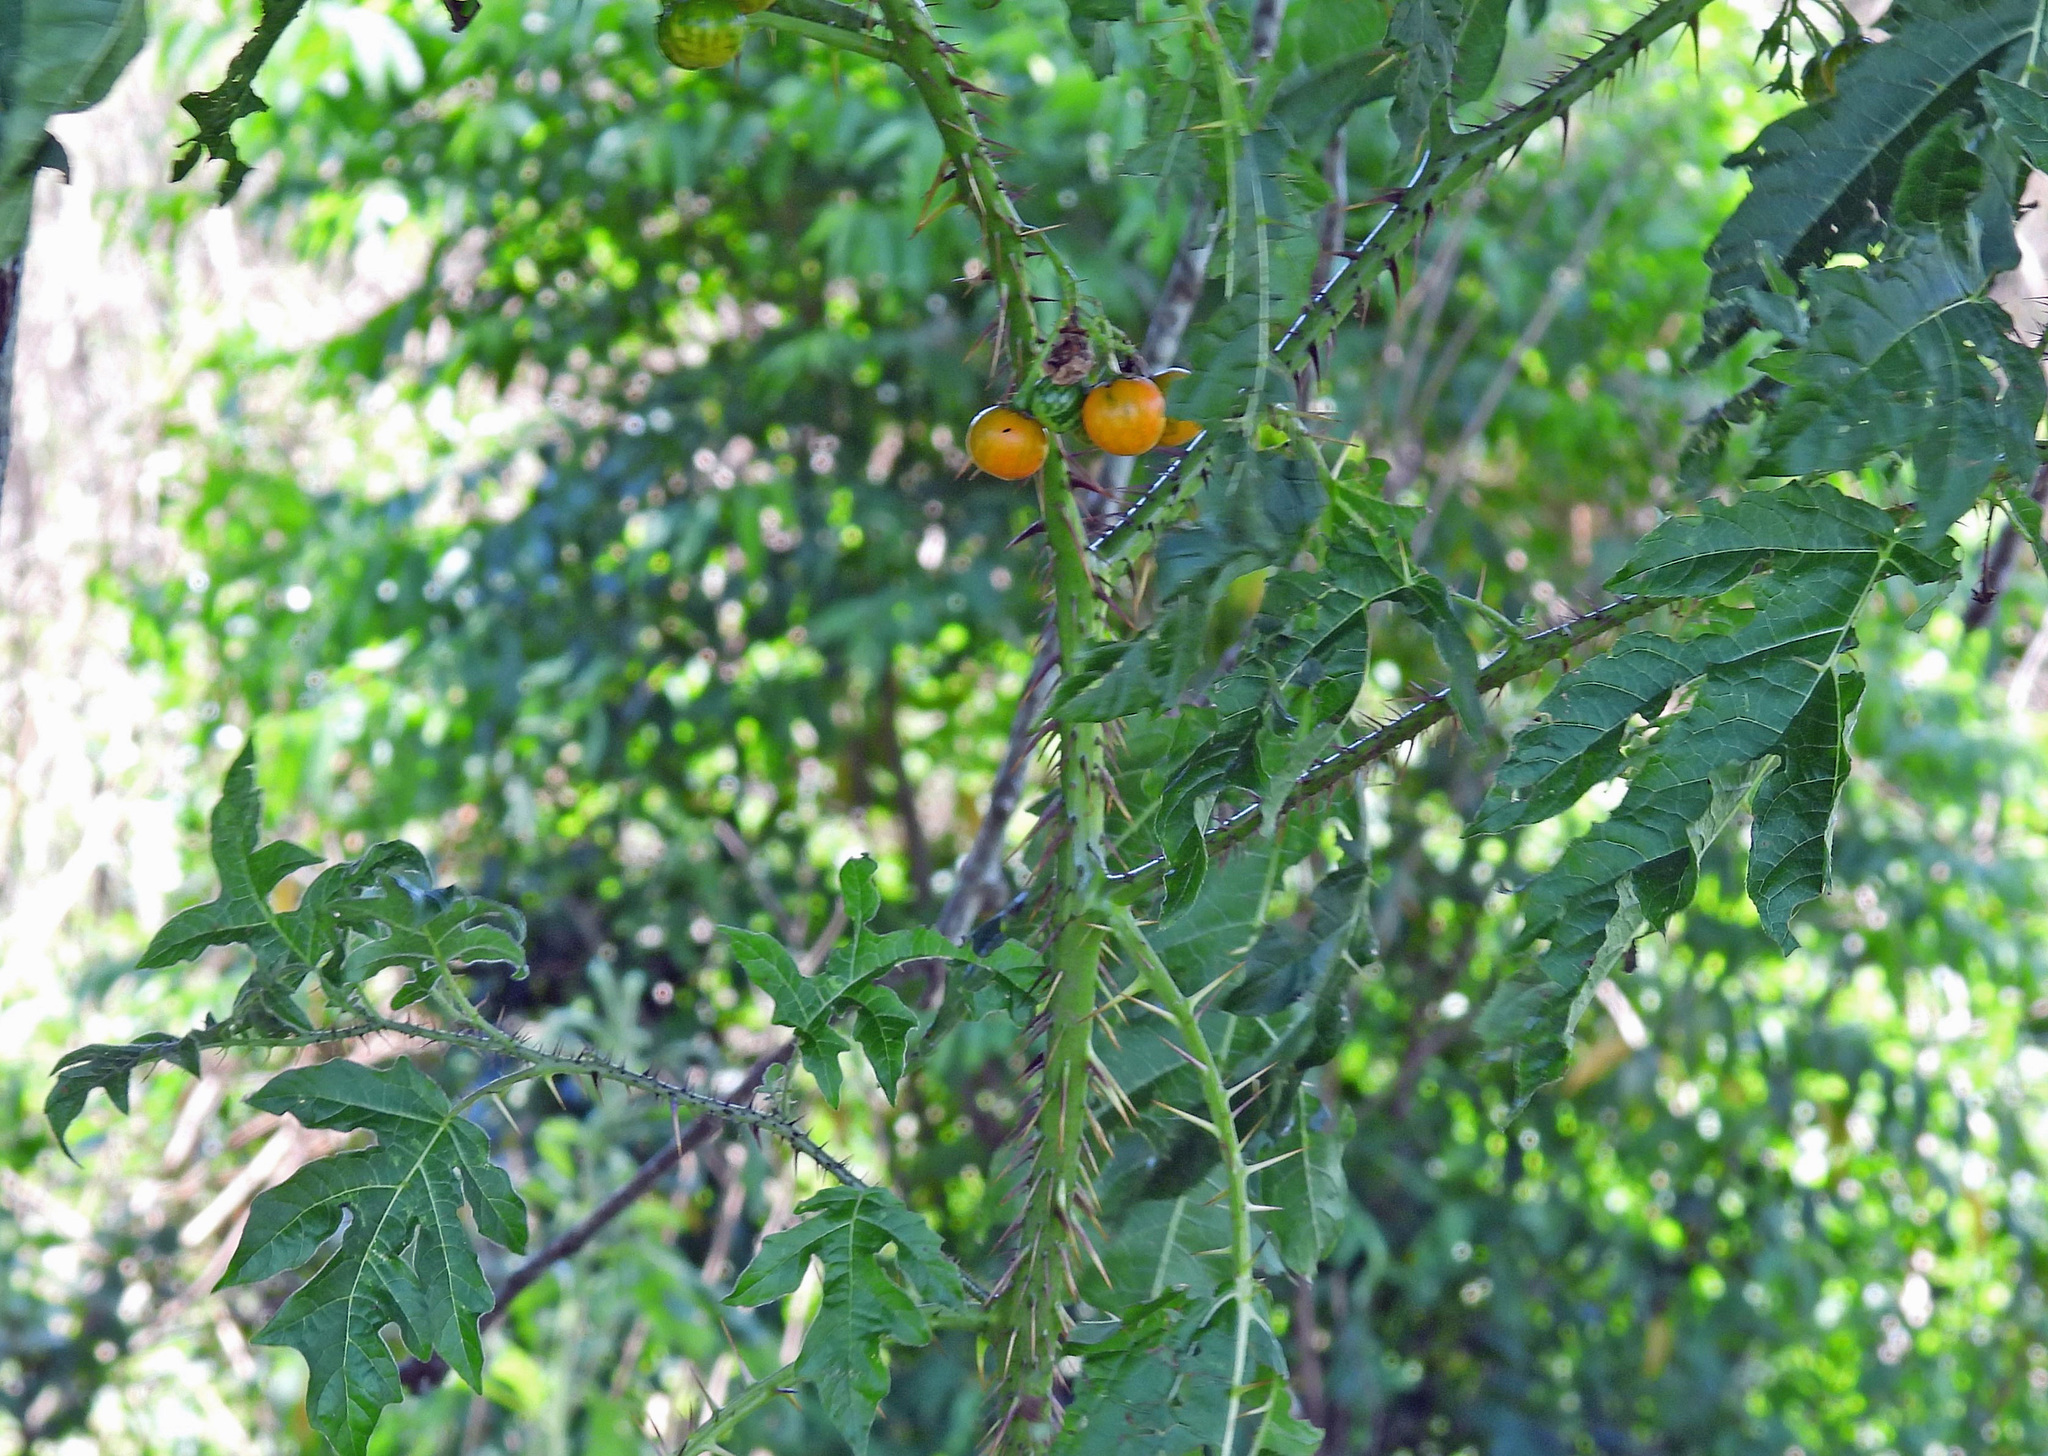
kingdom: Plantae
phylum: Tracheophyta
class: Magnoliopsida
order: Solanales
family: Solanaceae
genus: Solanum
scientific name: Solanum atropurpureum
